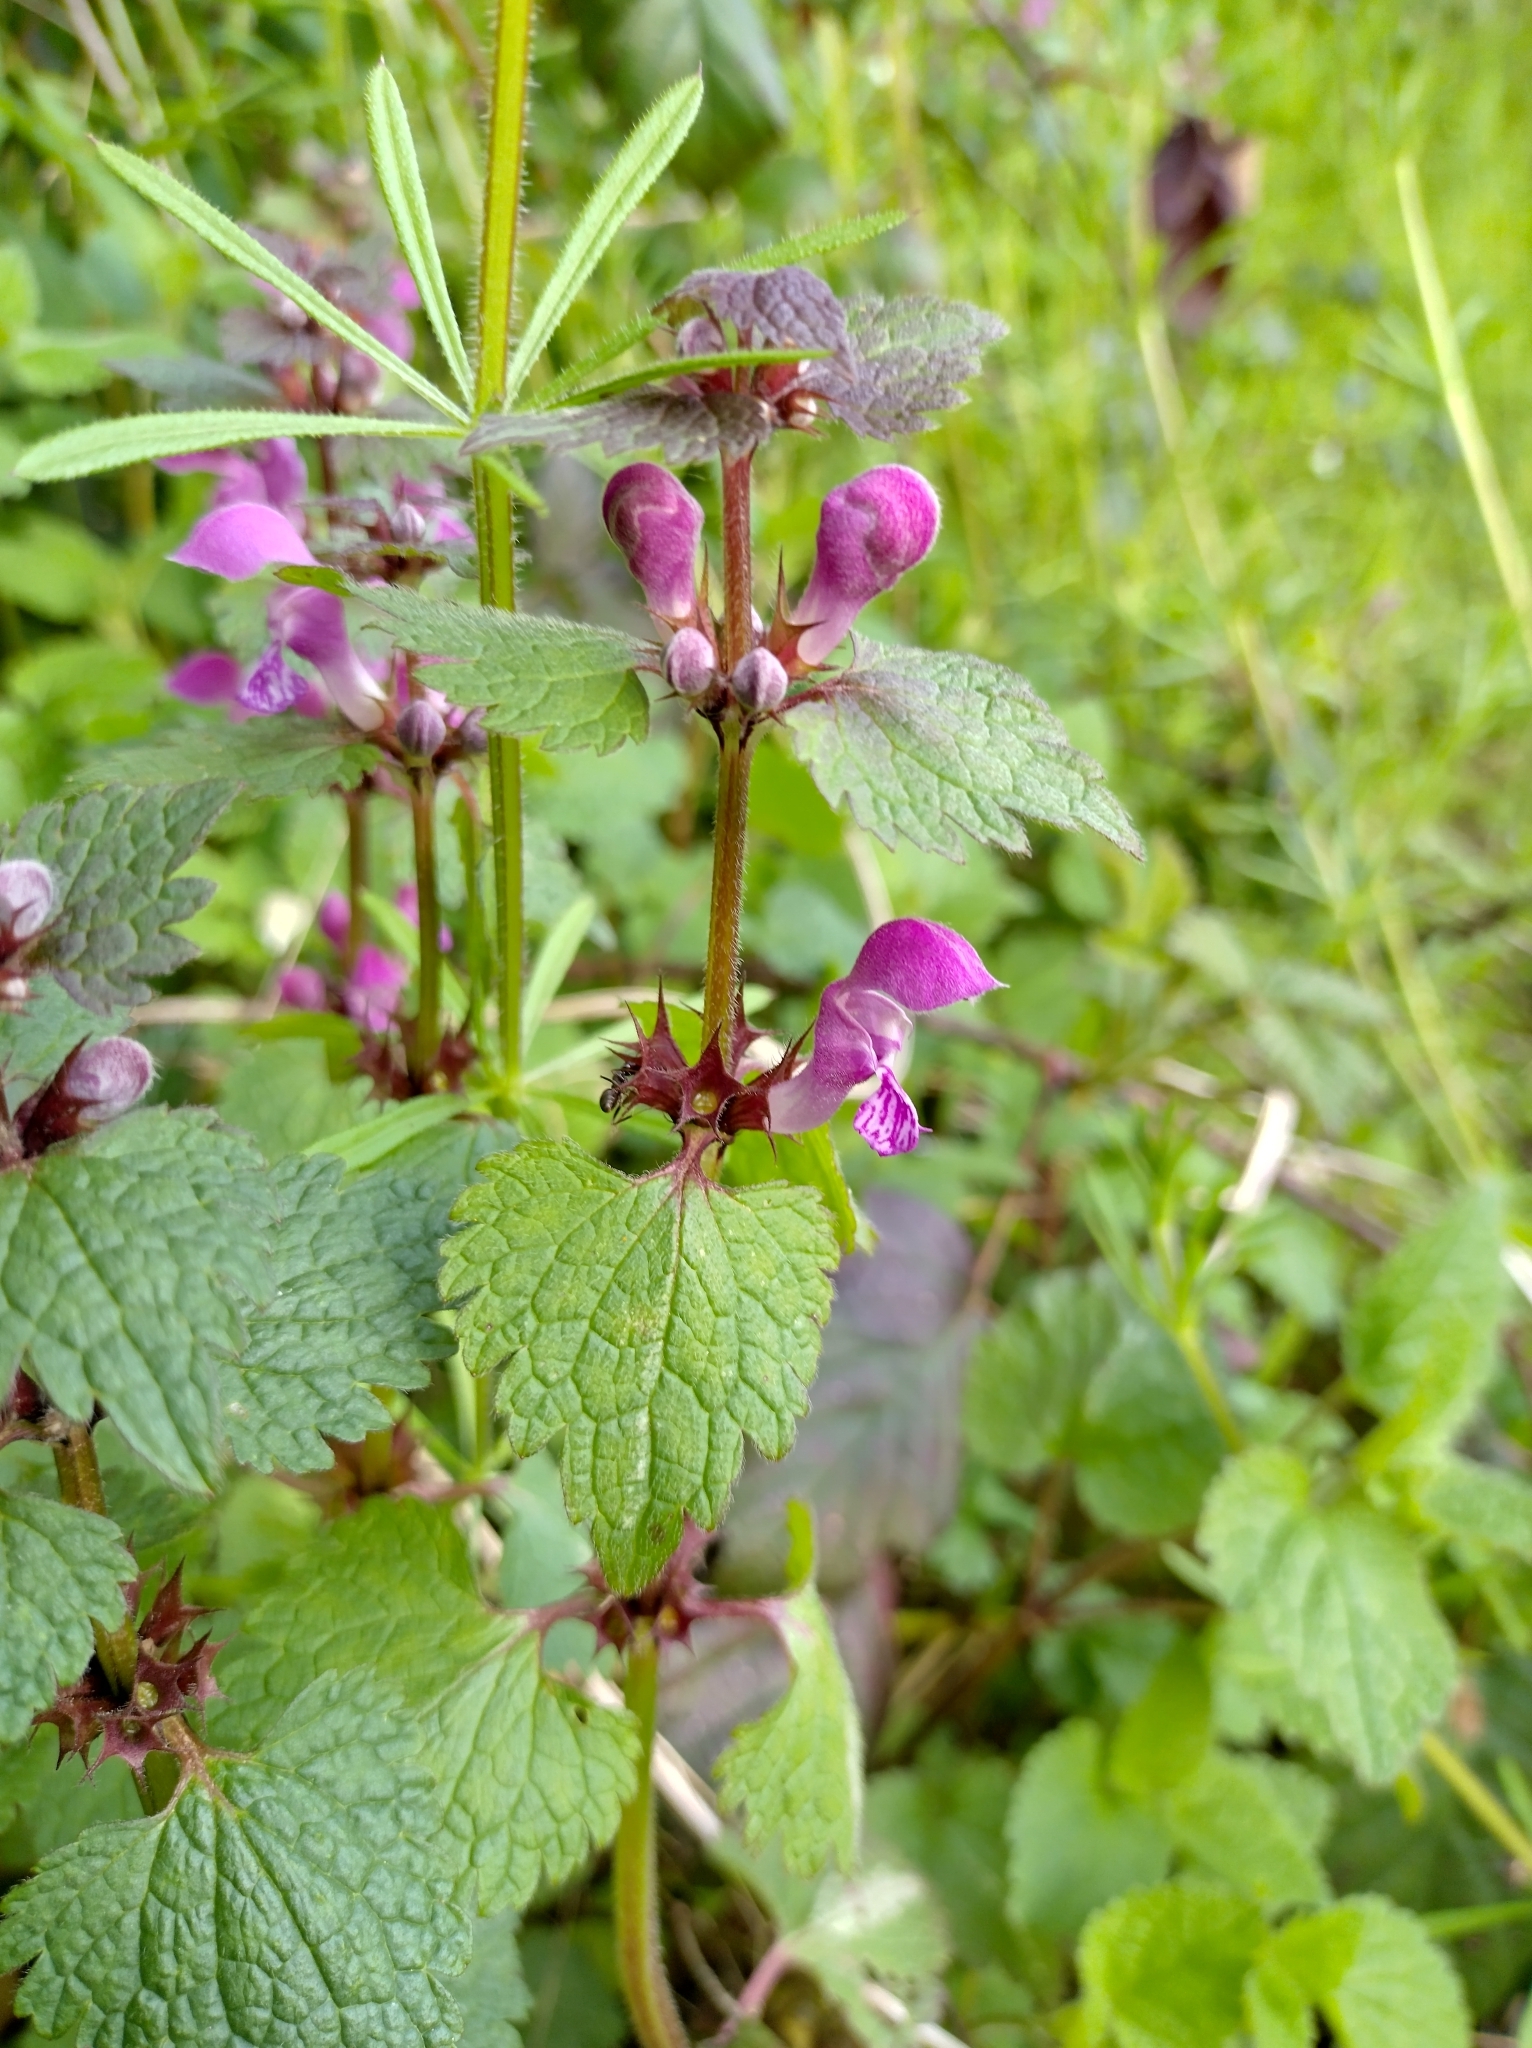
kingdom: Plantae
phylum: Tracheophyta
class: Magnoliopsida
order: Lamiales
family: Lamiaceae
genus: Lamium
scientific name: Lamium maculatum
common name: Spotted dead-nettle
